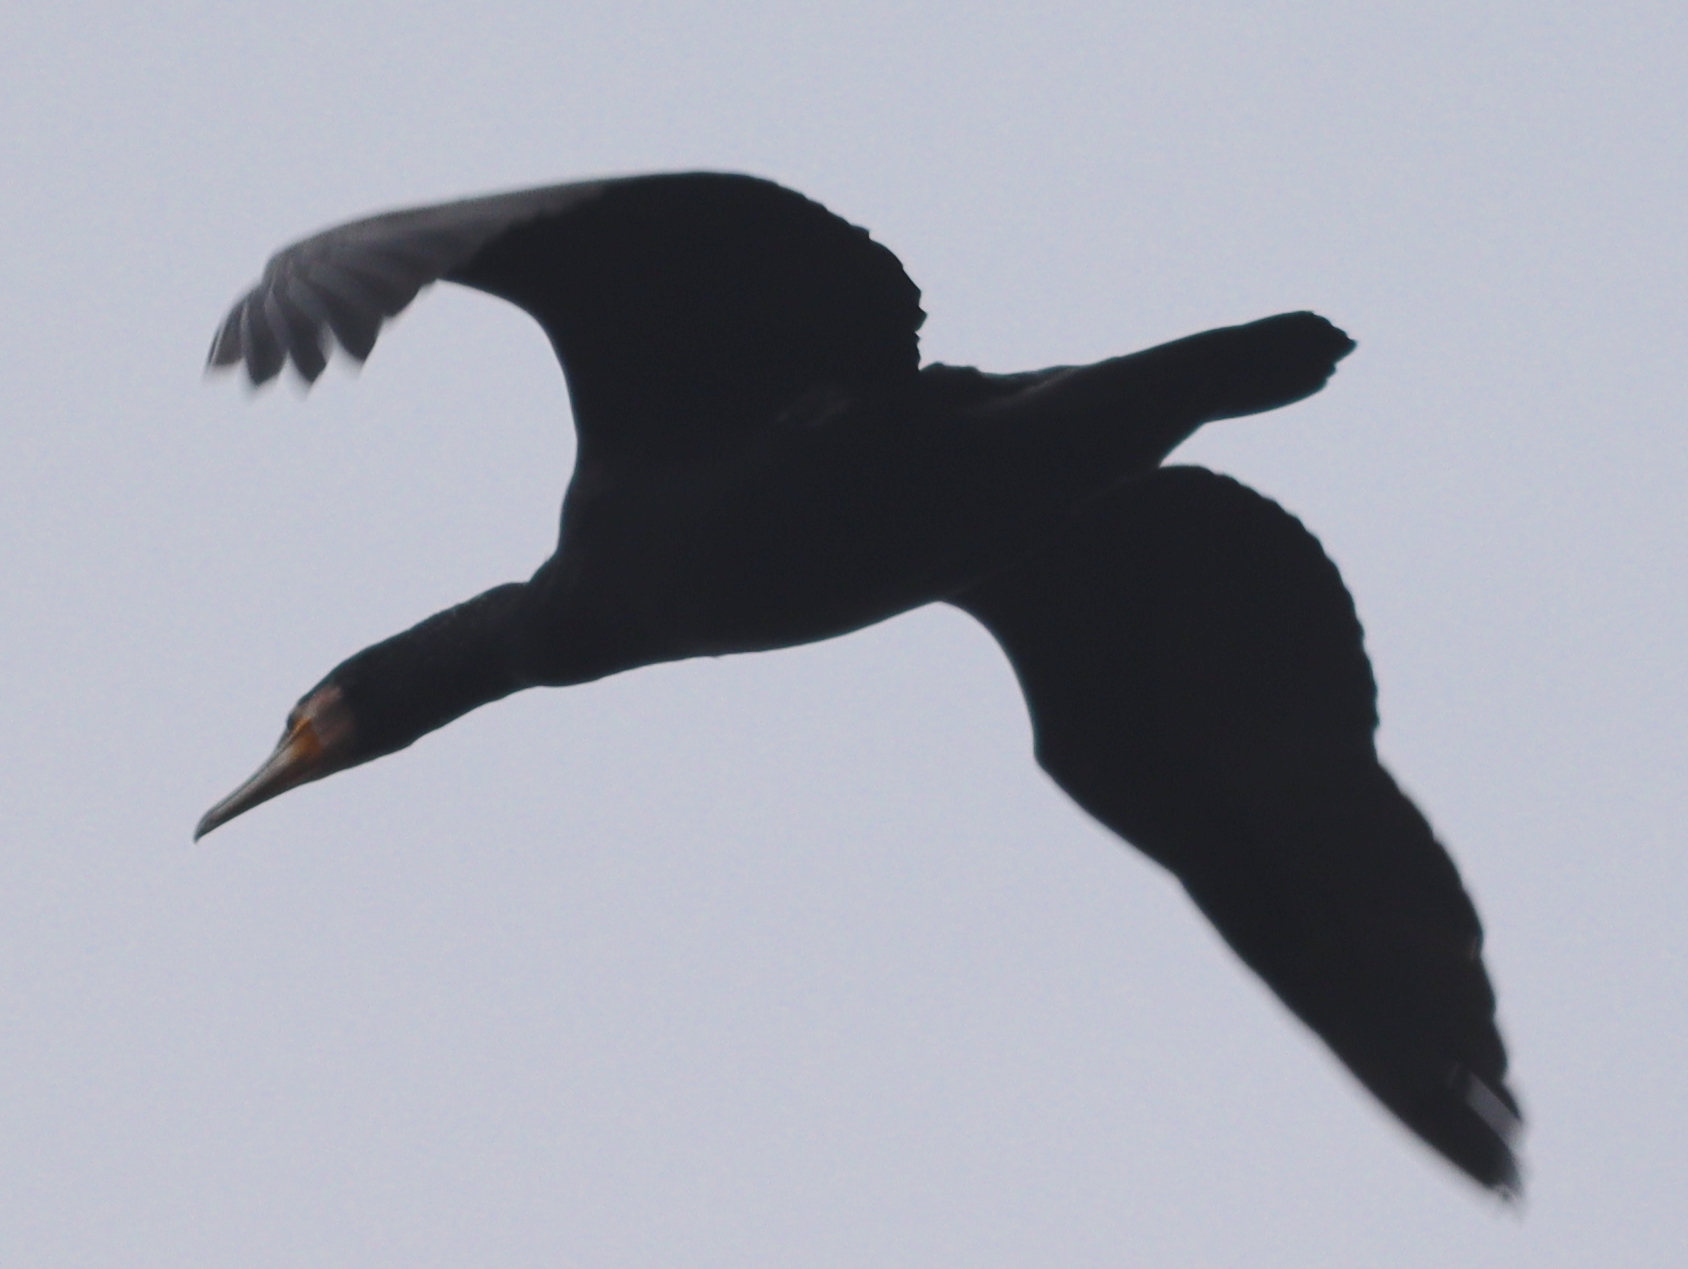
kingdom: Animalia
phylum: Chordata
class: Aves
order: Suliformes
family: Phalacrocoracidae
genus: Phalacrocorax
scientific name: Phalacrocorax carbo
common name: Great cormorant
